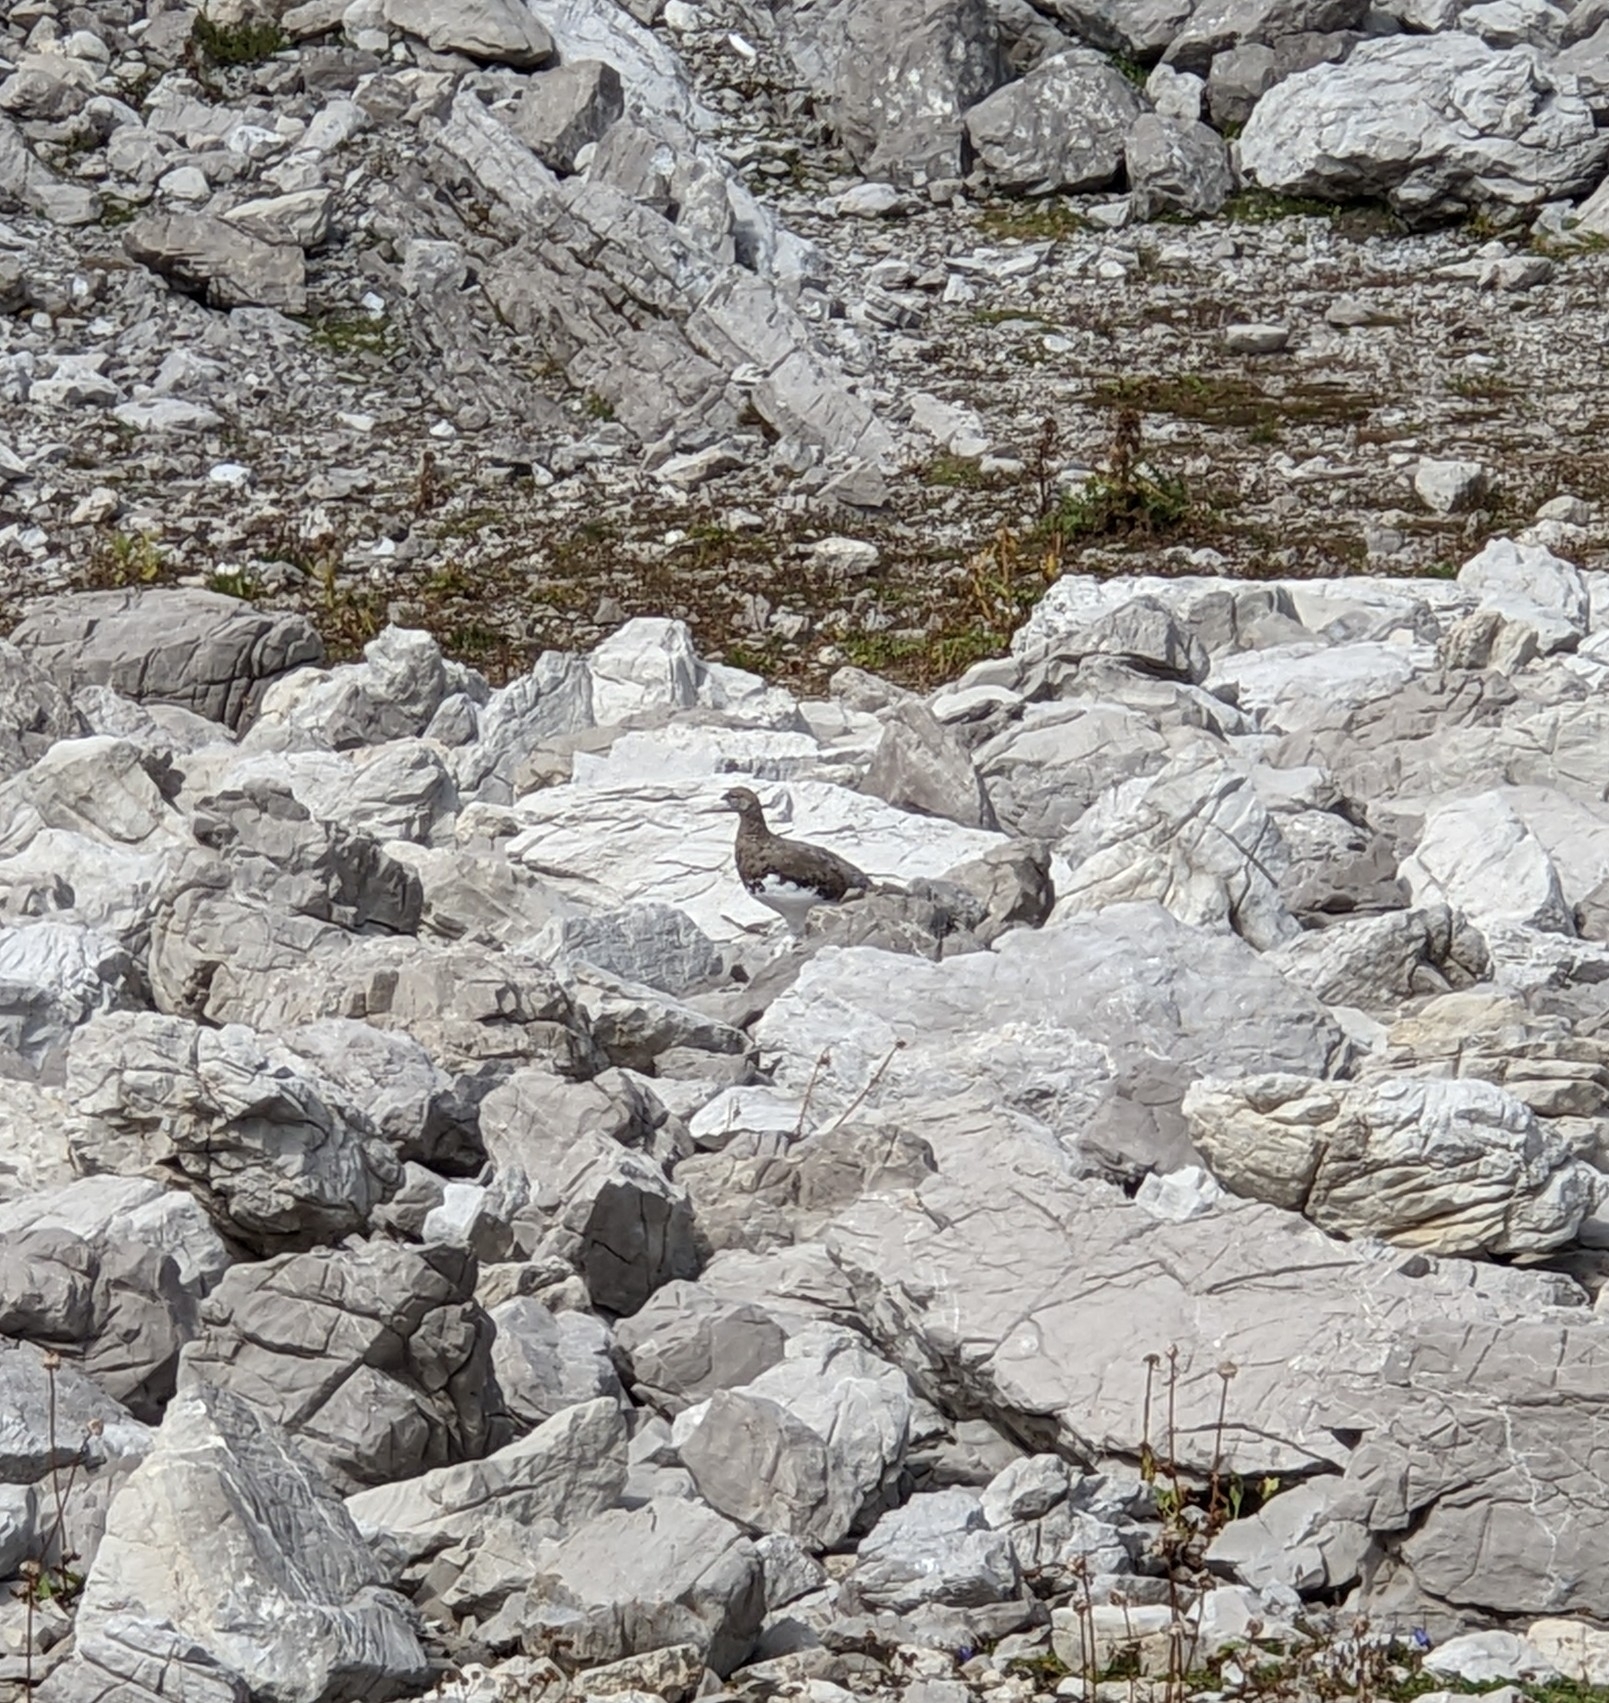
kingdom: Animalia
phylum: Chordata
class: Aves
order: Galliformes
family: Phasianidae
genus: Lagopus
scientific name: Lagopus muta
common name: Rock ptarmigan
